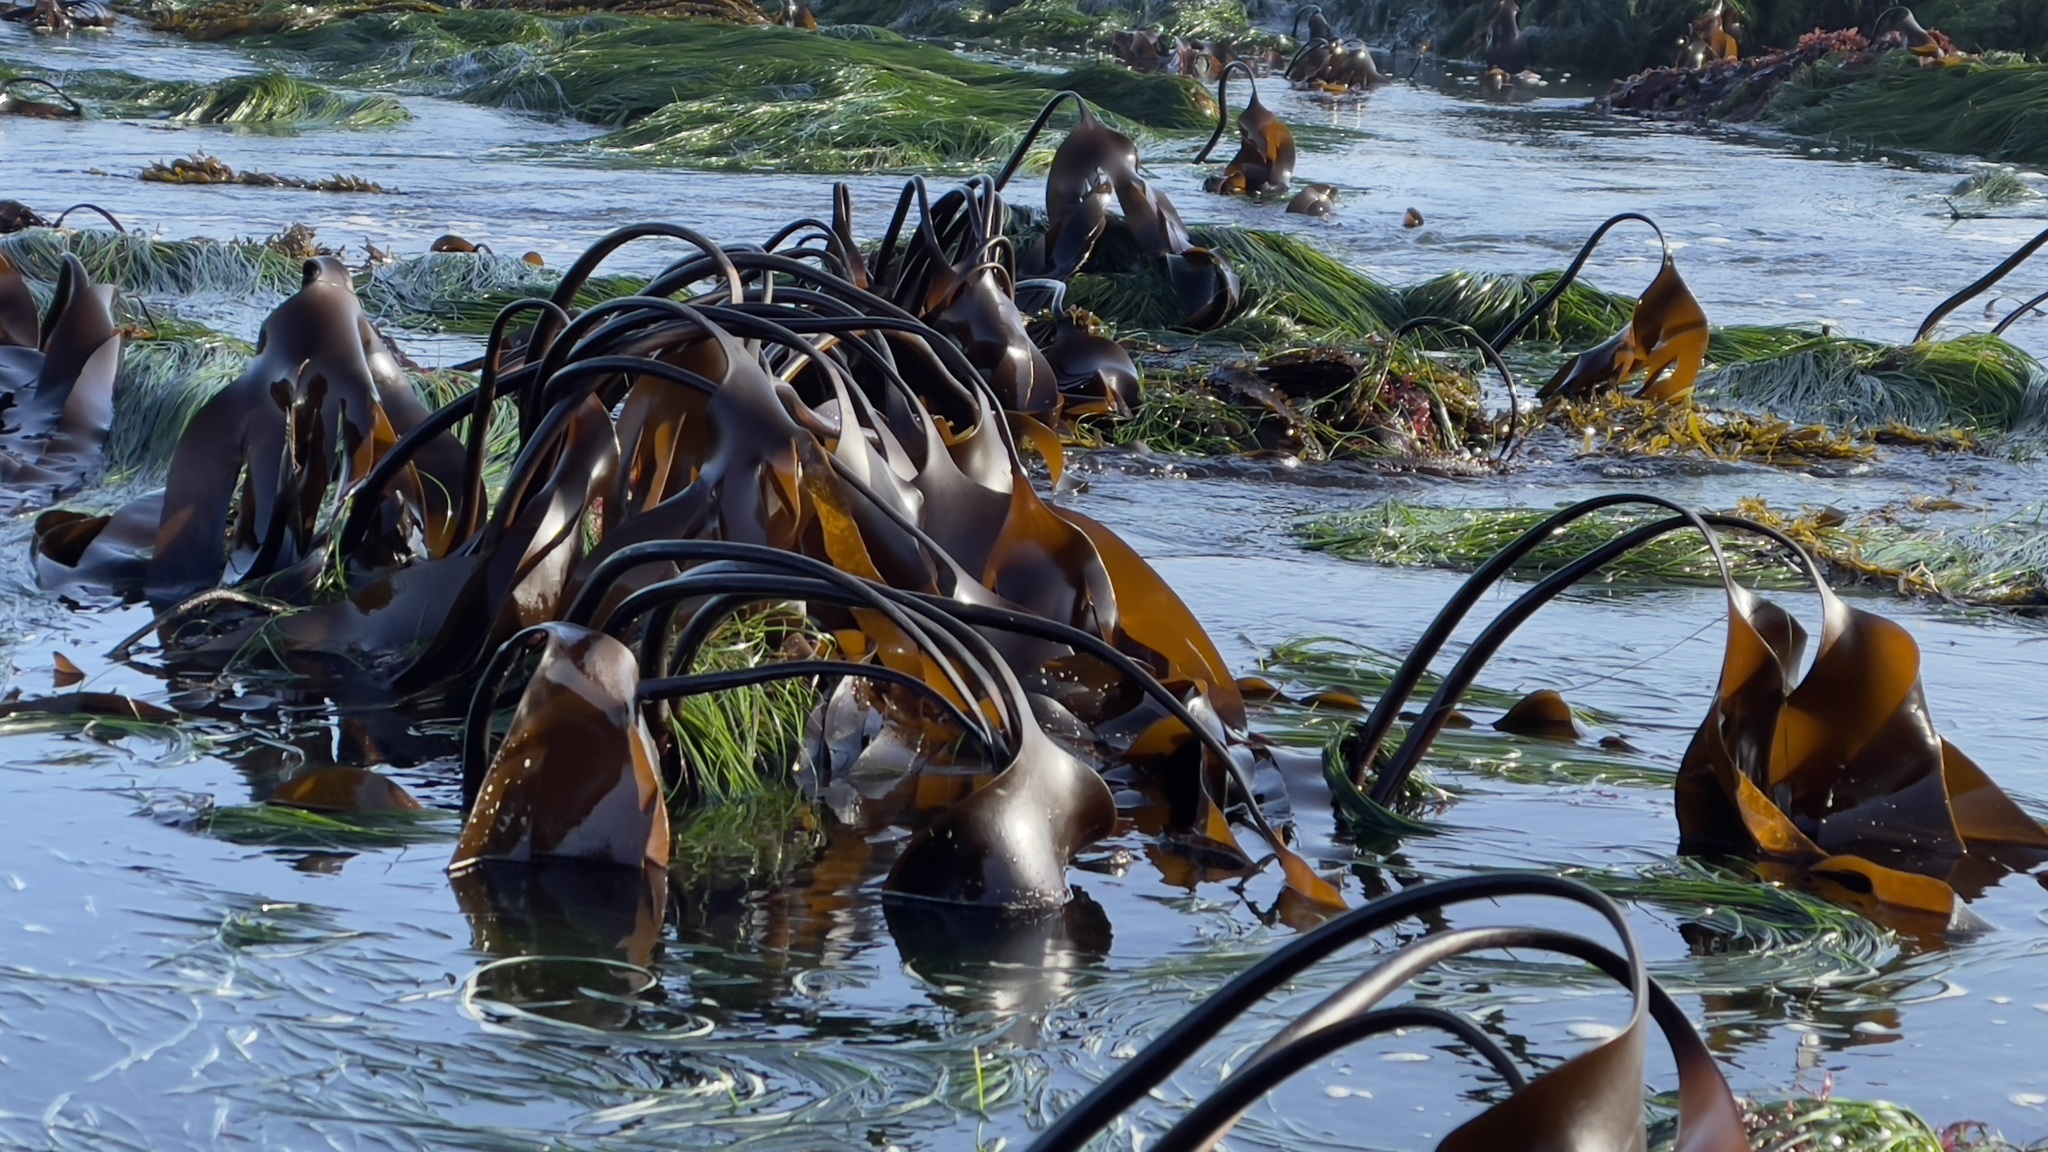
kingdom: Chromista
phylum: Ochrophyta
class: Phaeophyceae
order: Laminariales
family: Laminariaceae
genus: Laminaria
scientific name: Laminaria setchellii
